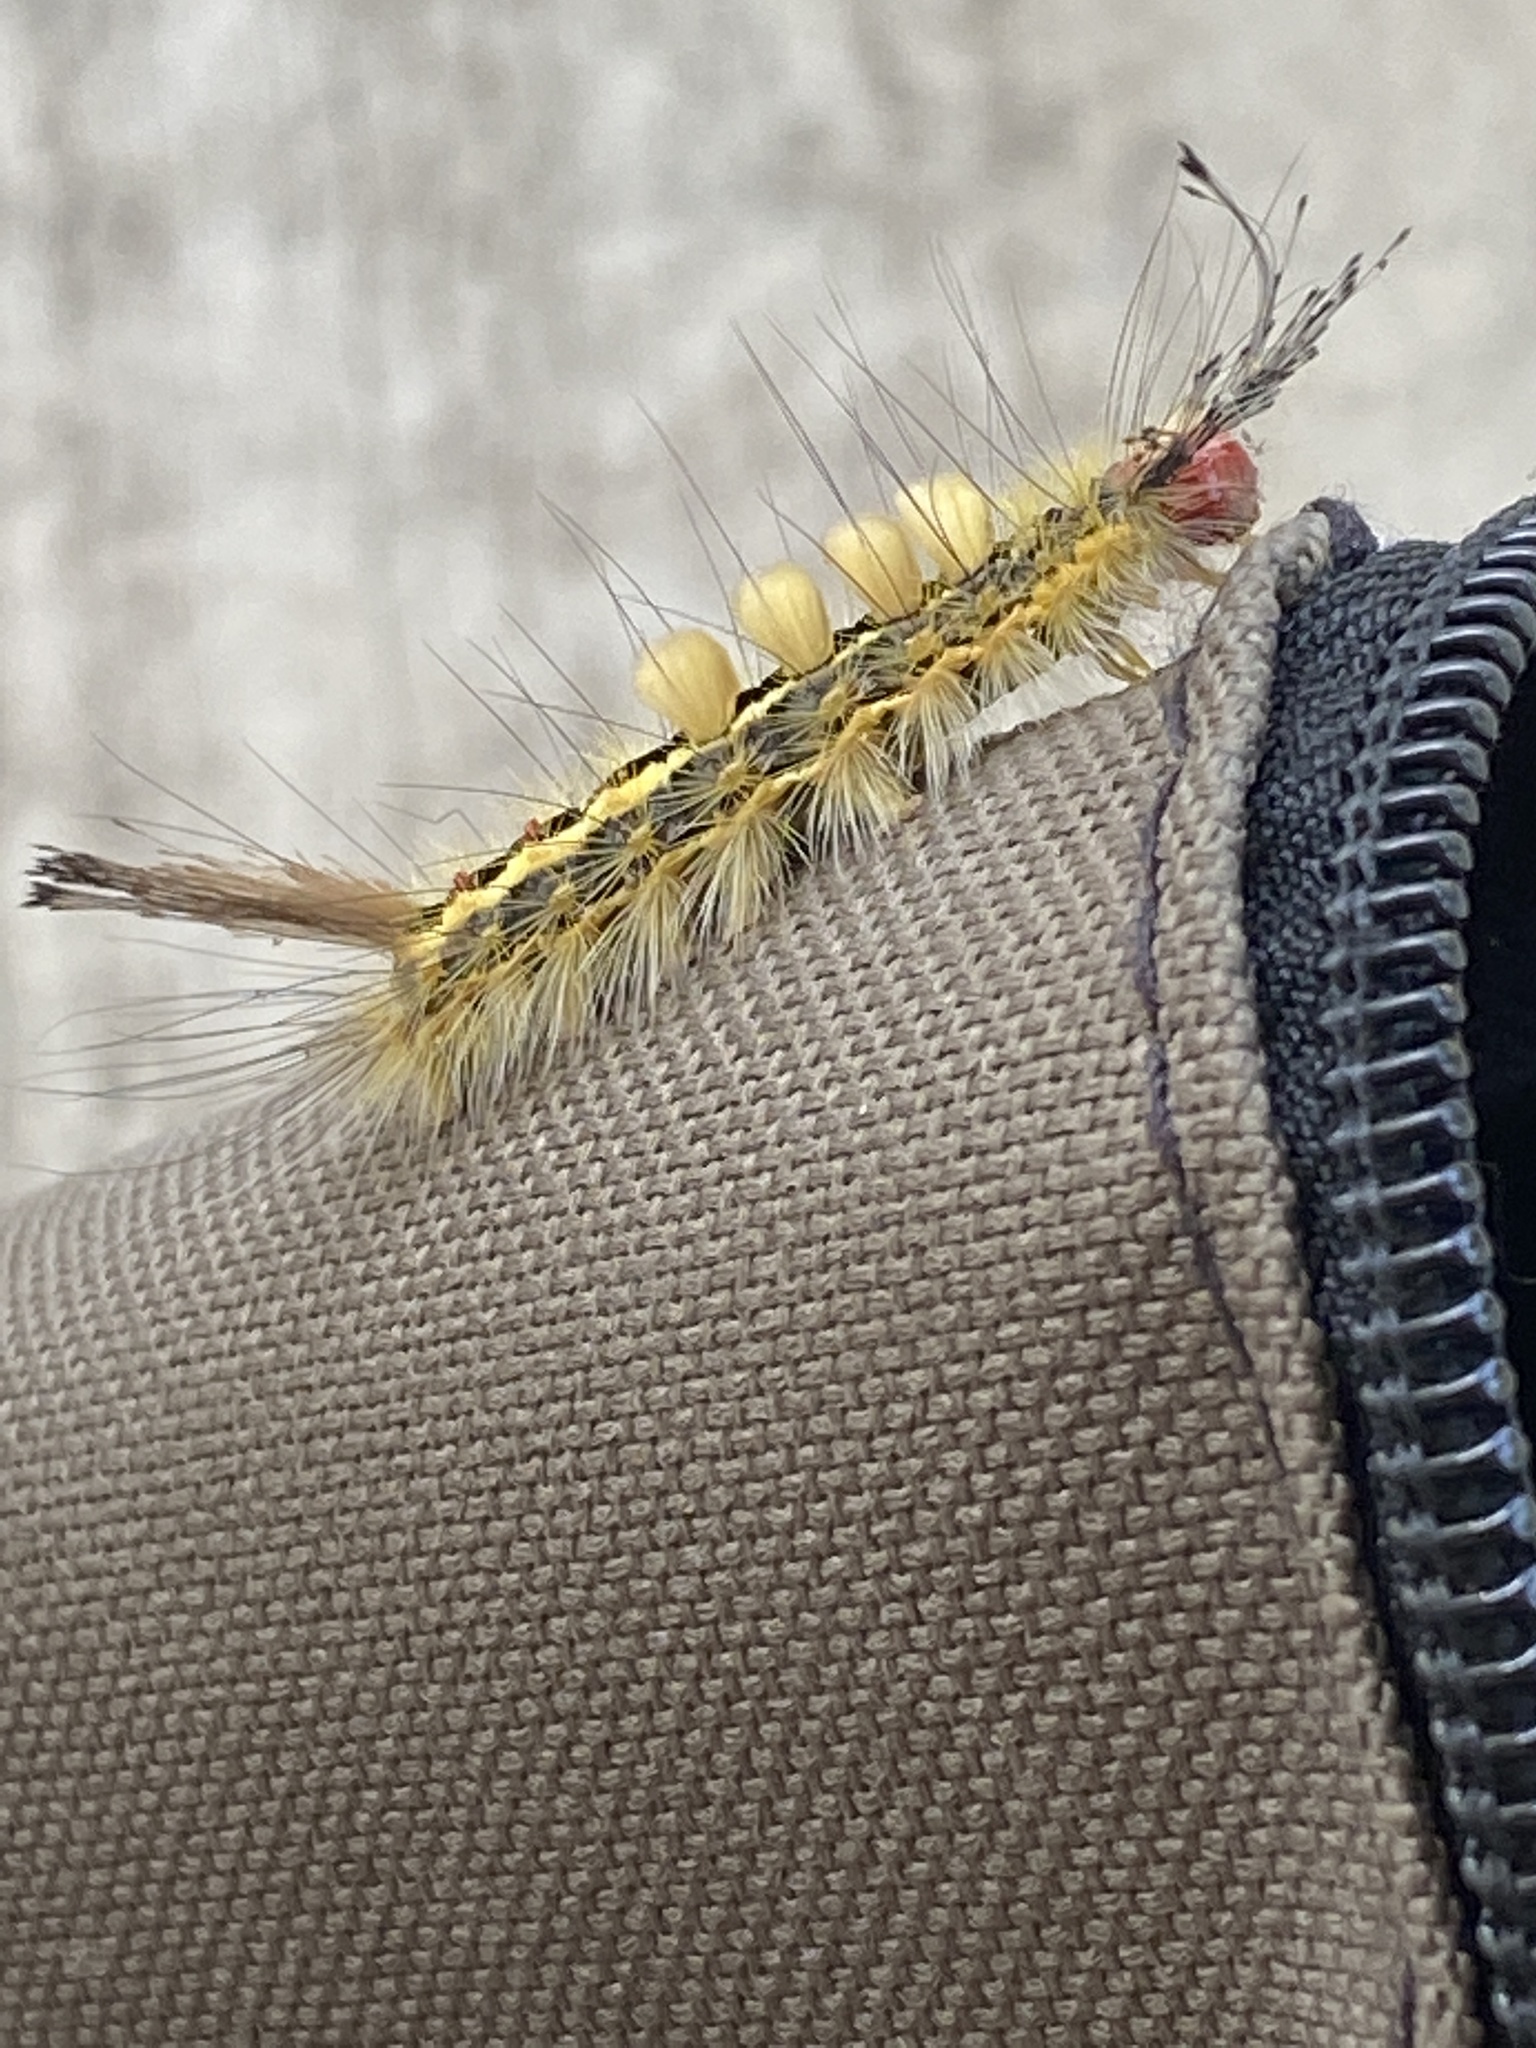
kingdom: Animalia
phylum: Arthropoda
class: Insecta
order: Lepidoptera
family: Erebidae
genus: Orgyia
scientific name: Orgyia leucostigma
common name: White-marked tussock moth
